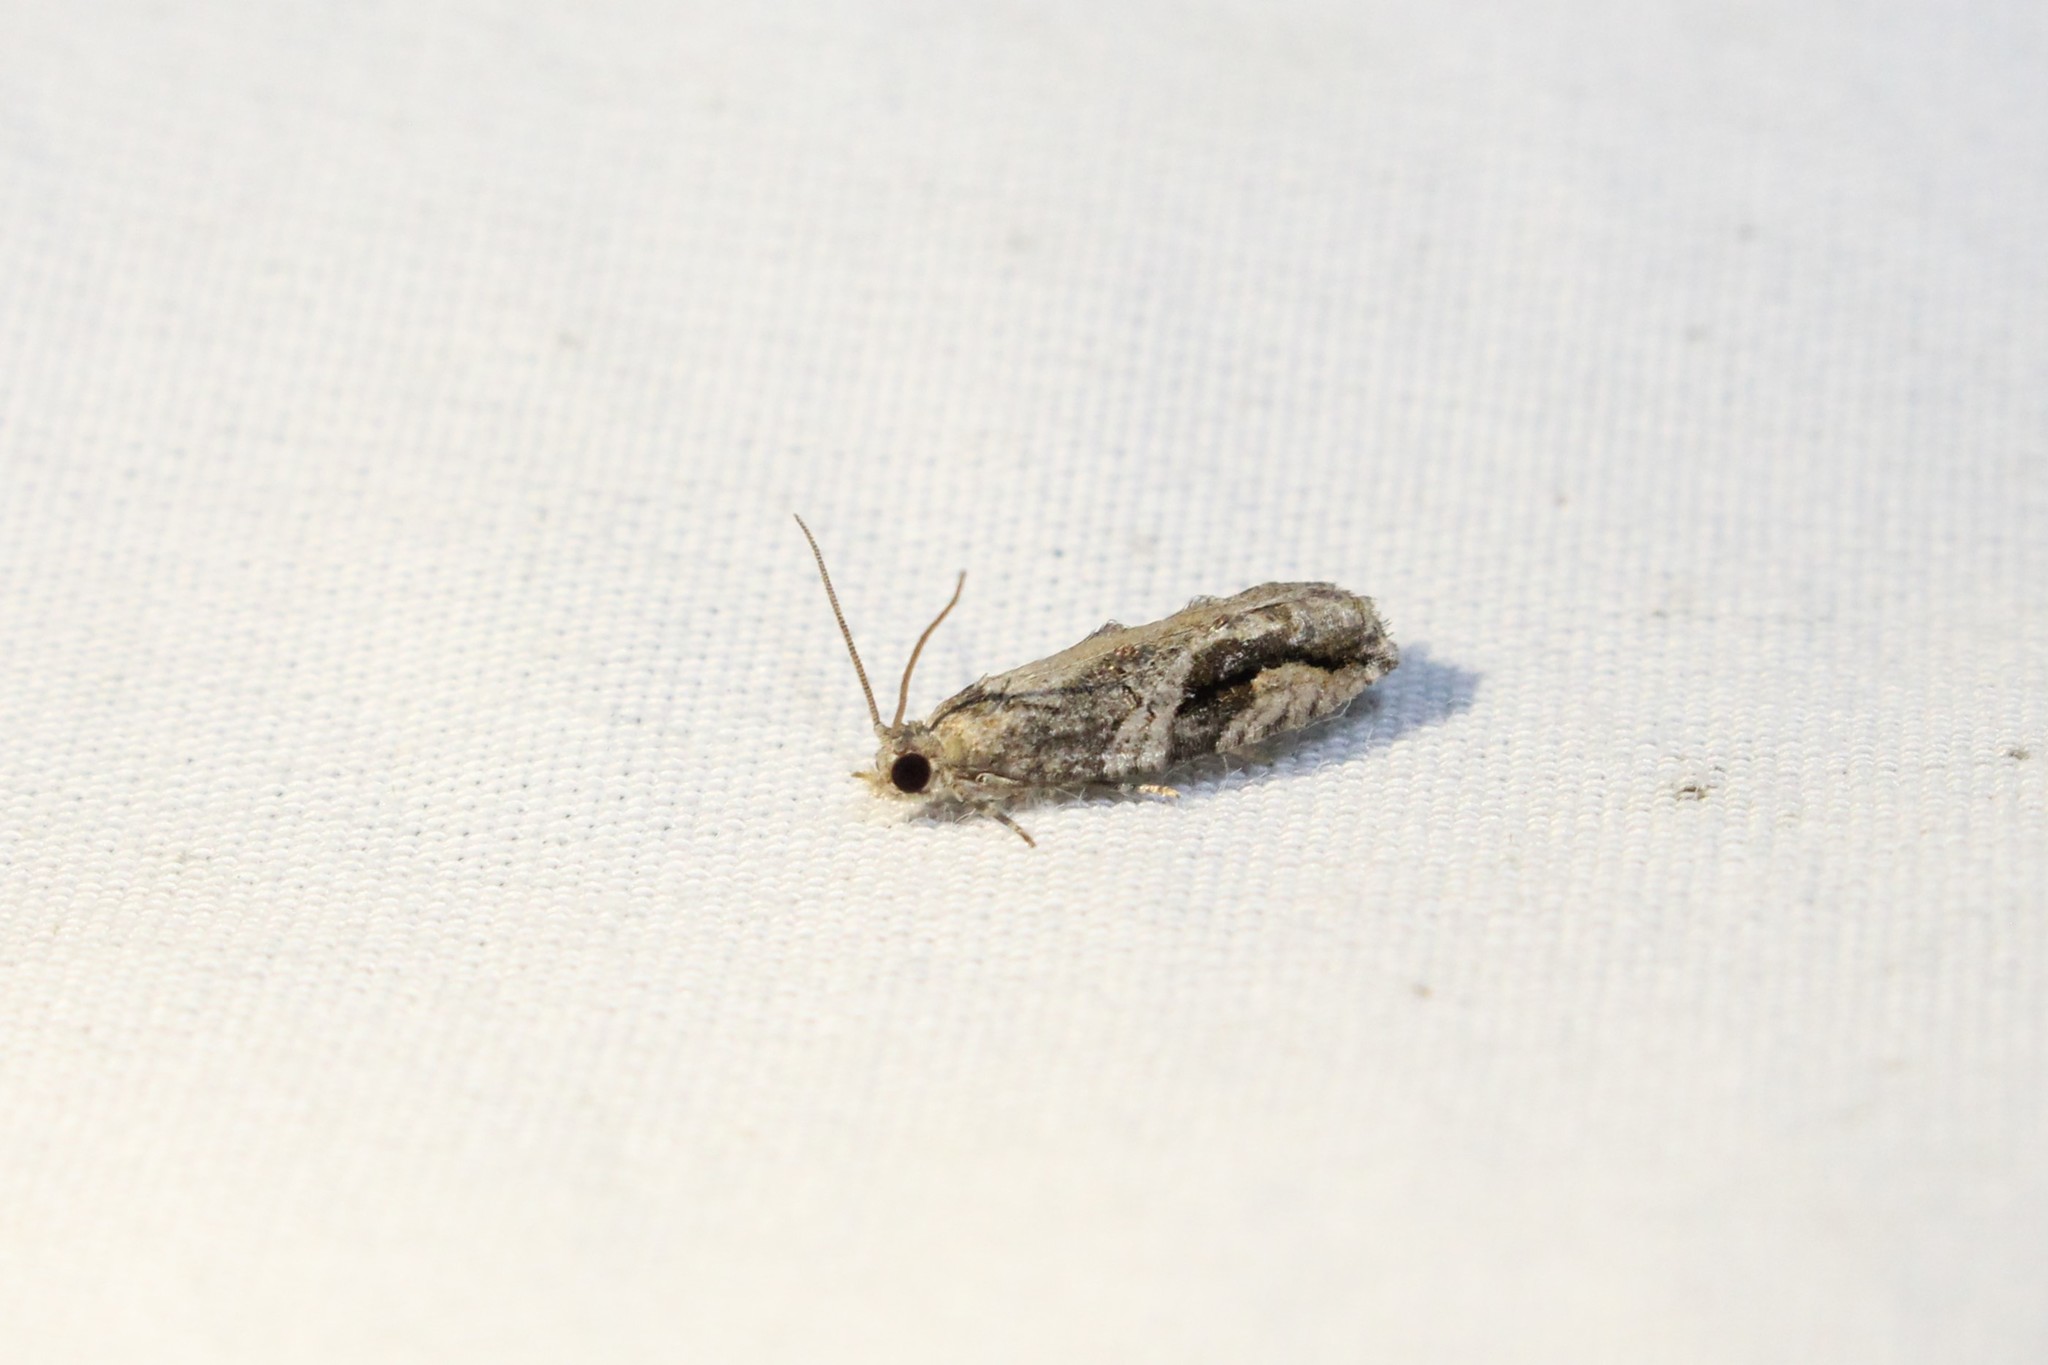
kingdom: Animalia
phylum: Arthropoda
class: Insecta
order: Lepidoptera
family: Tortricidae
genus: Proteoteras
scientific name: Proteoteras crescentana
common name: Black-crescent proteoteras moth
